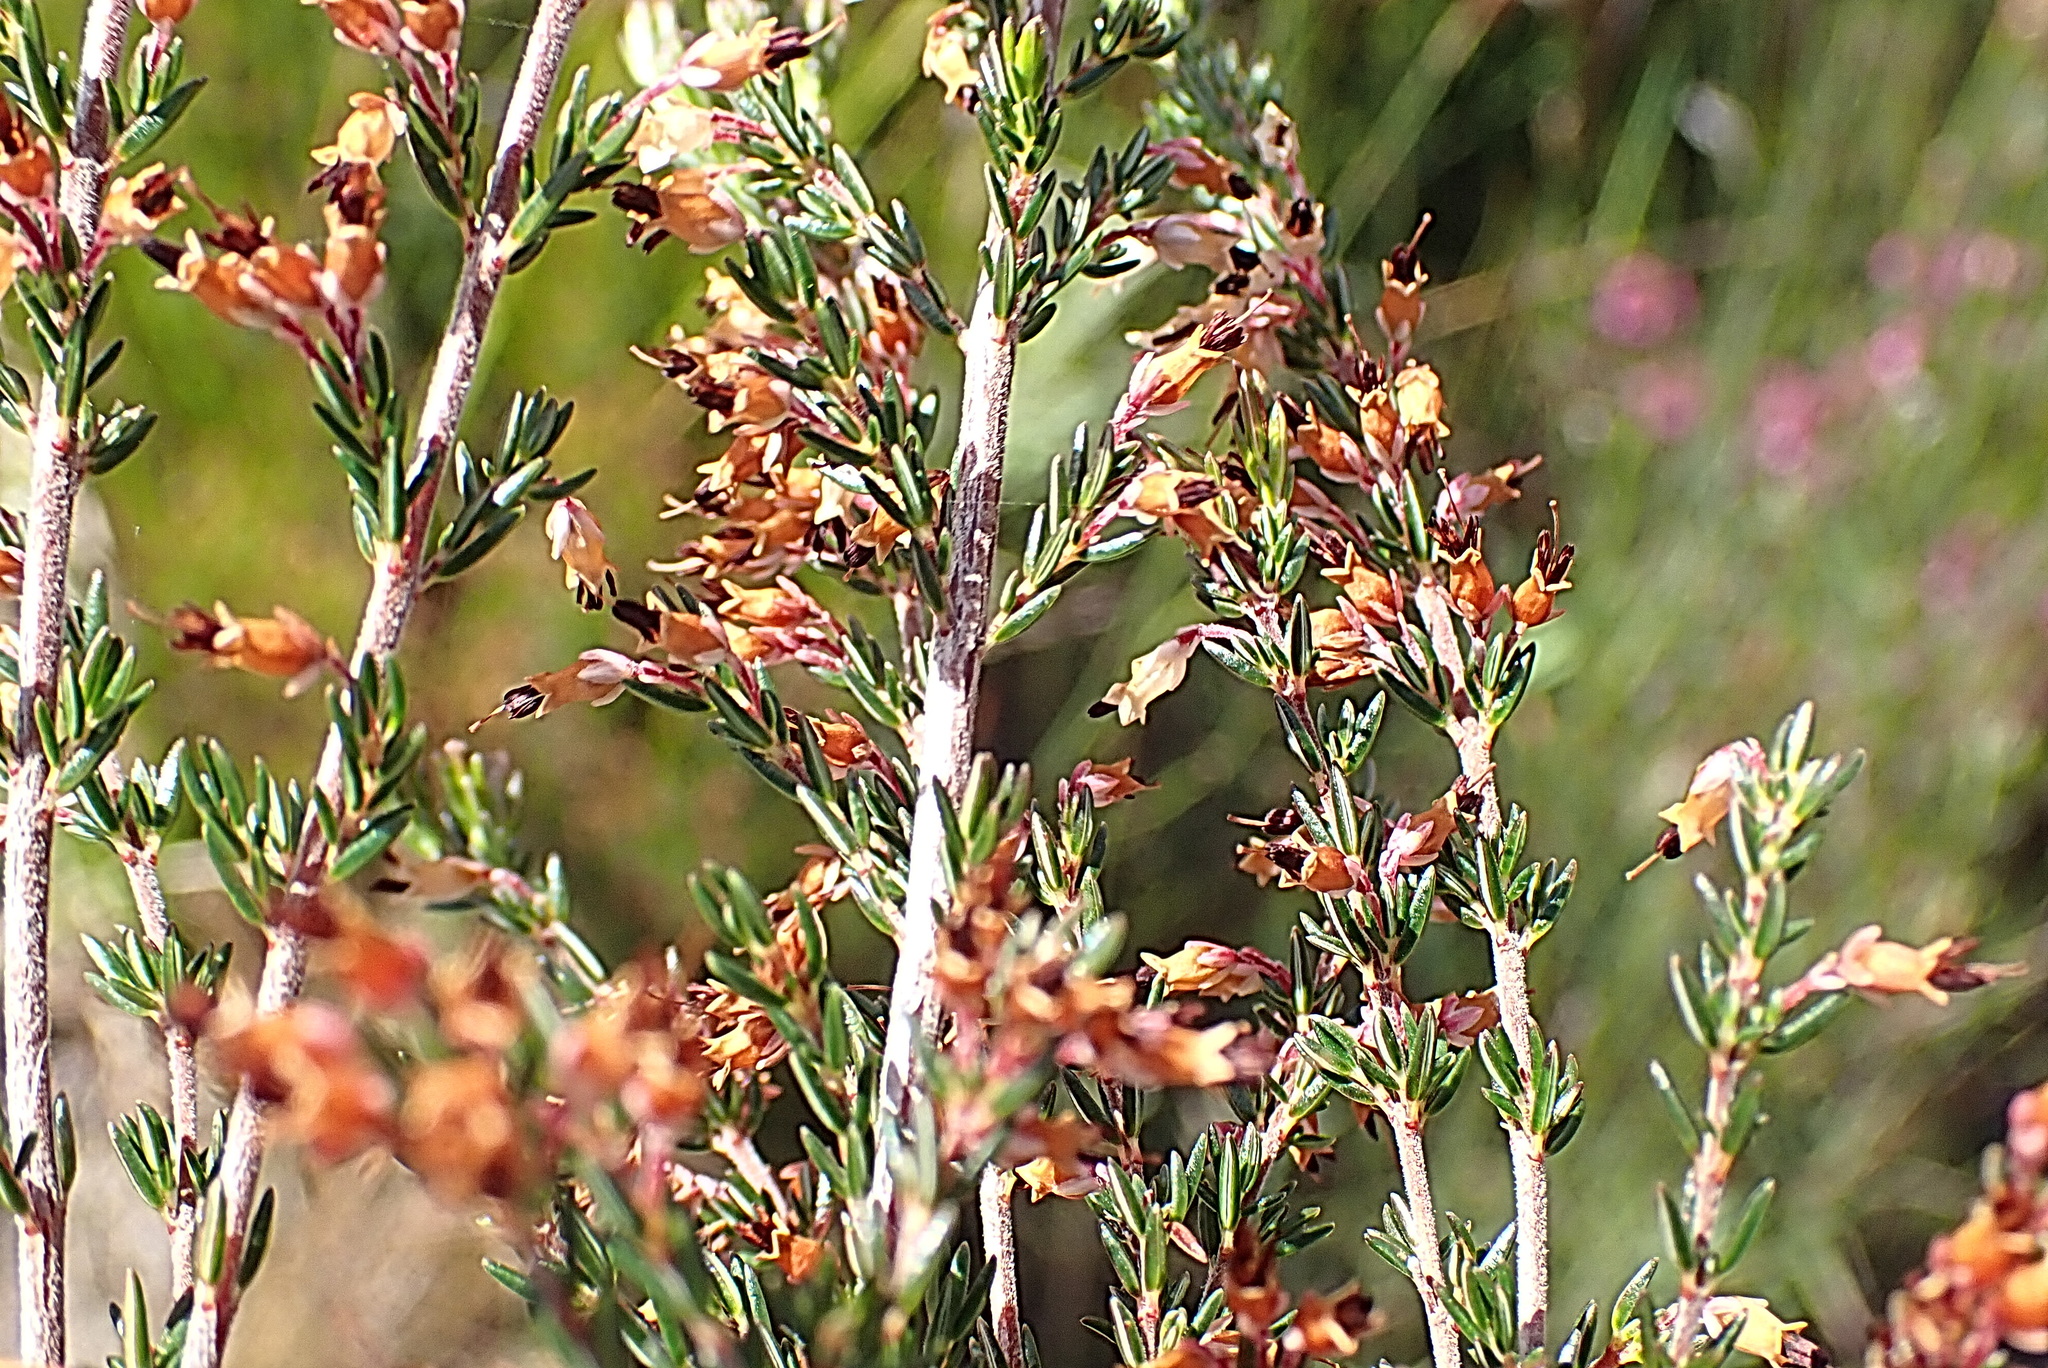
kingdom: Plantae
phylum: Tracheophyta
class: Magnoliopsida
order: Ericales
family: Ericaceae
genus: Erica
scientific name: Erica fuscescens
